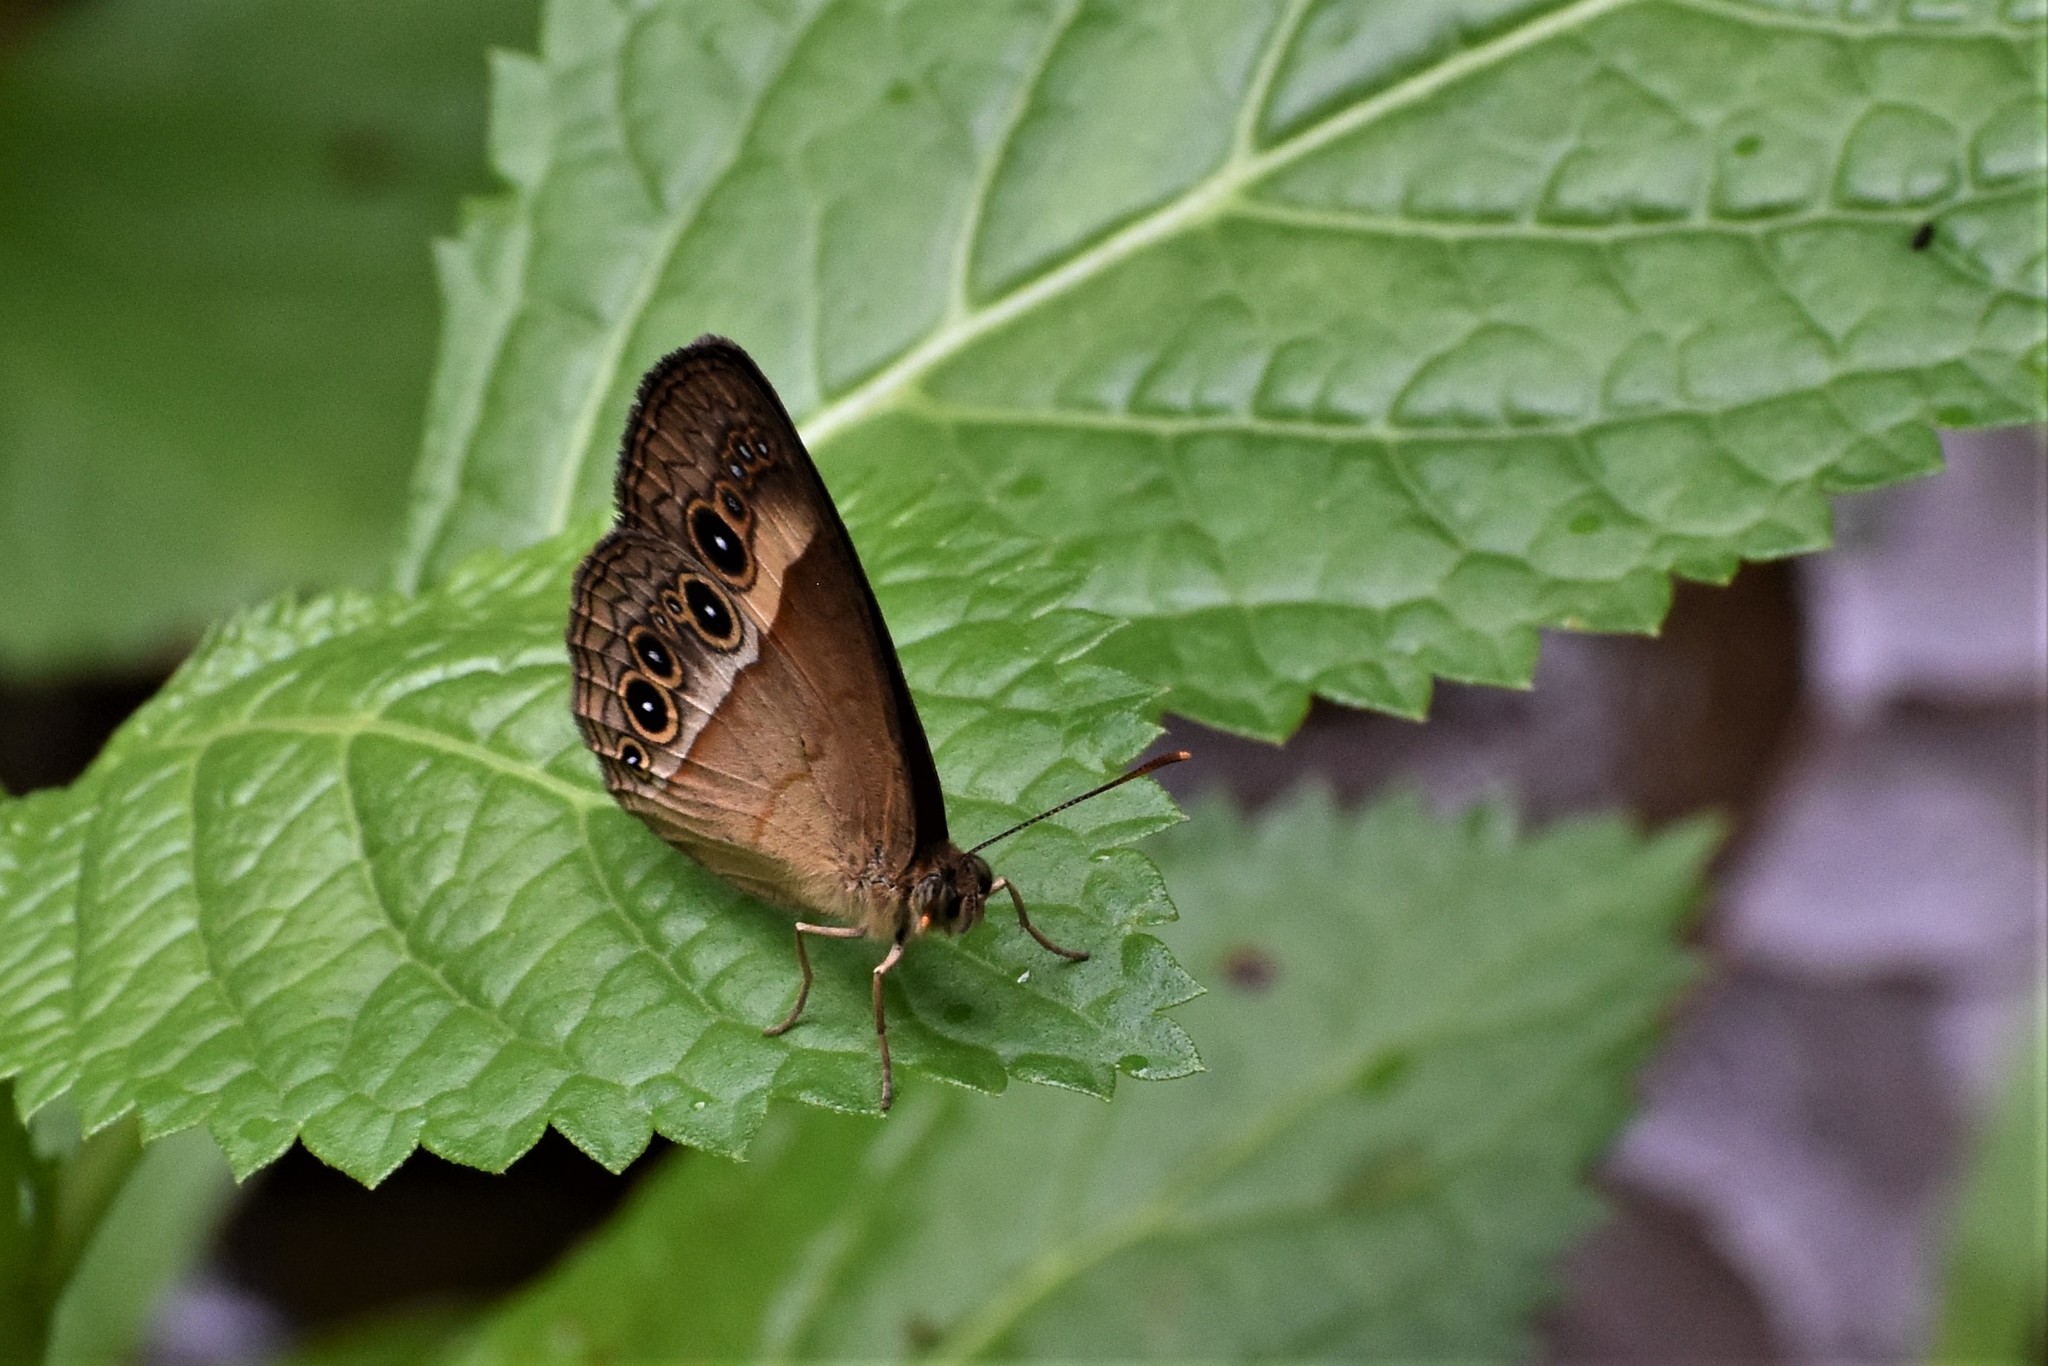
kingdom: Animalia
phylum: Arthropoda
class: Insecta
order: Lepidoptera
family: Nymphalidae
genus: Mycalesis
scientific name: Mycalesis terminus
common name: Orange bushbrown
